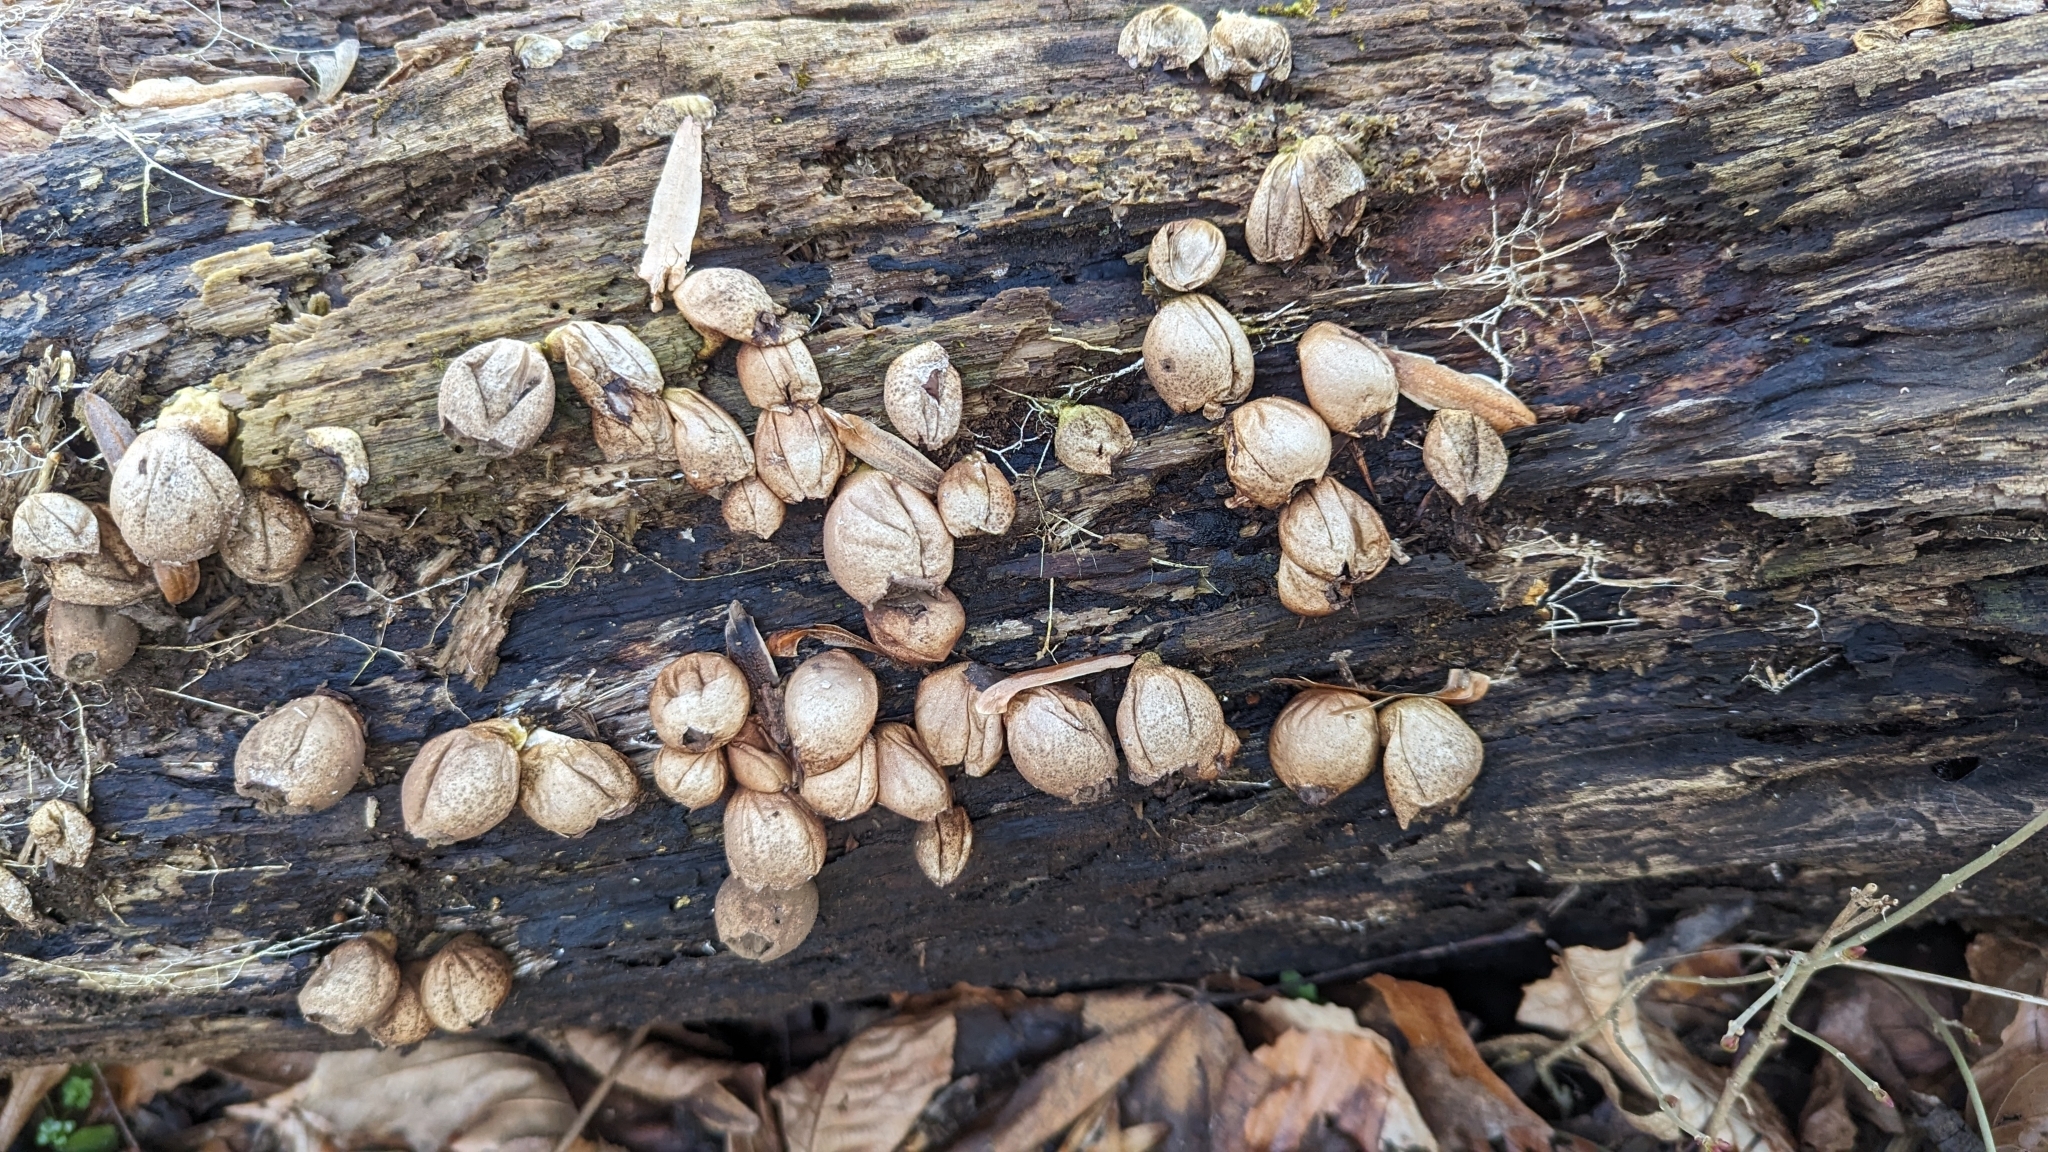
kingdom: Fungi
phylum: Basidiomycota
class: Agaricomycetes
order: Agaricales
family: Lycoperdaceae
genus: Apioperdon
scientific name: Apioperdon pyriforme
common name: Pear-shaped puffball
